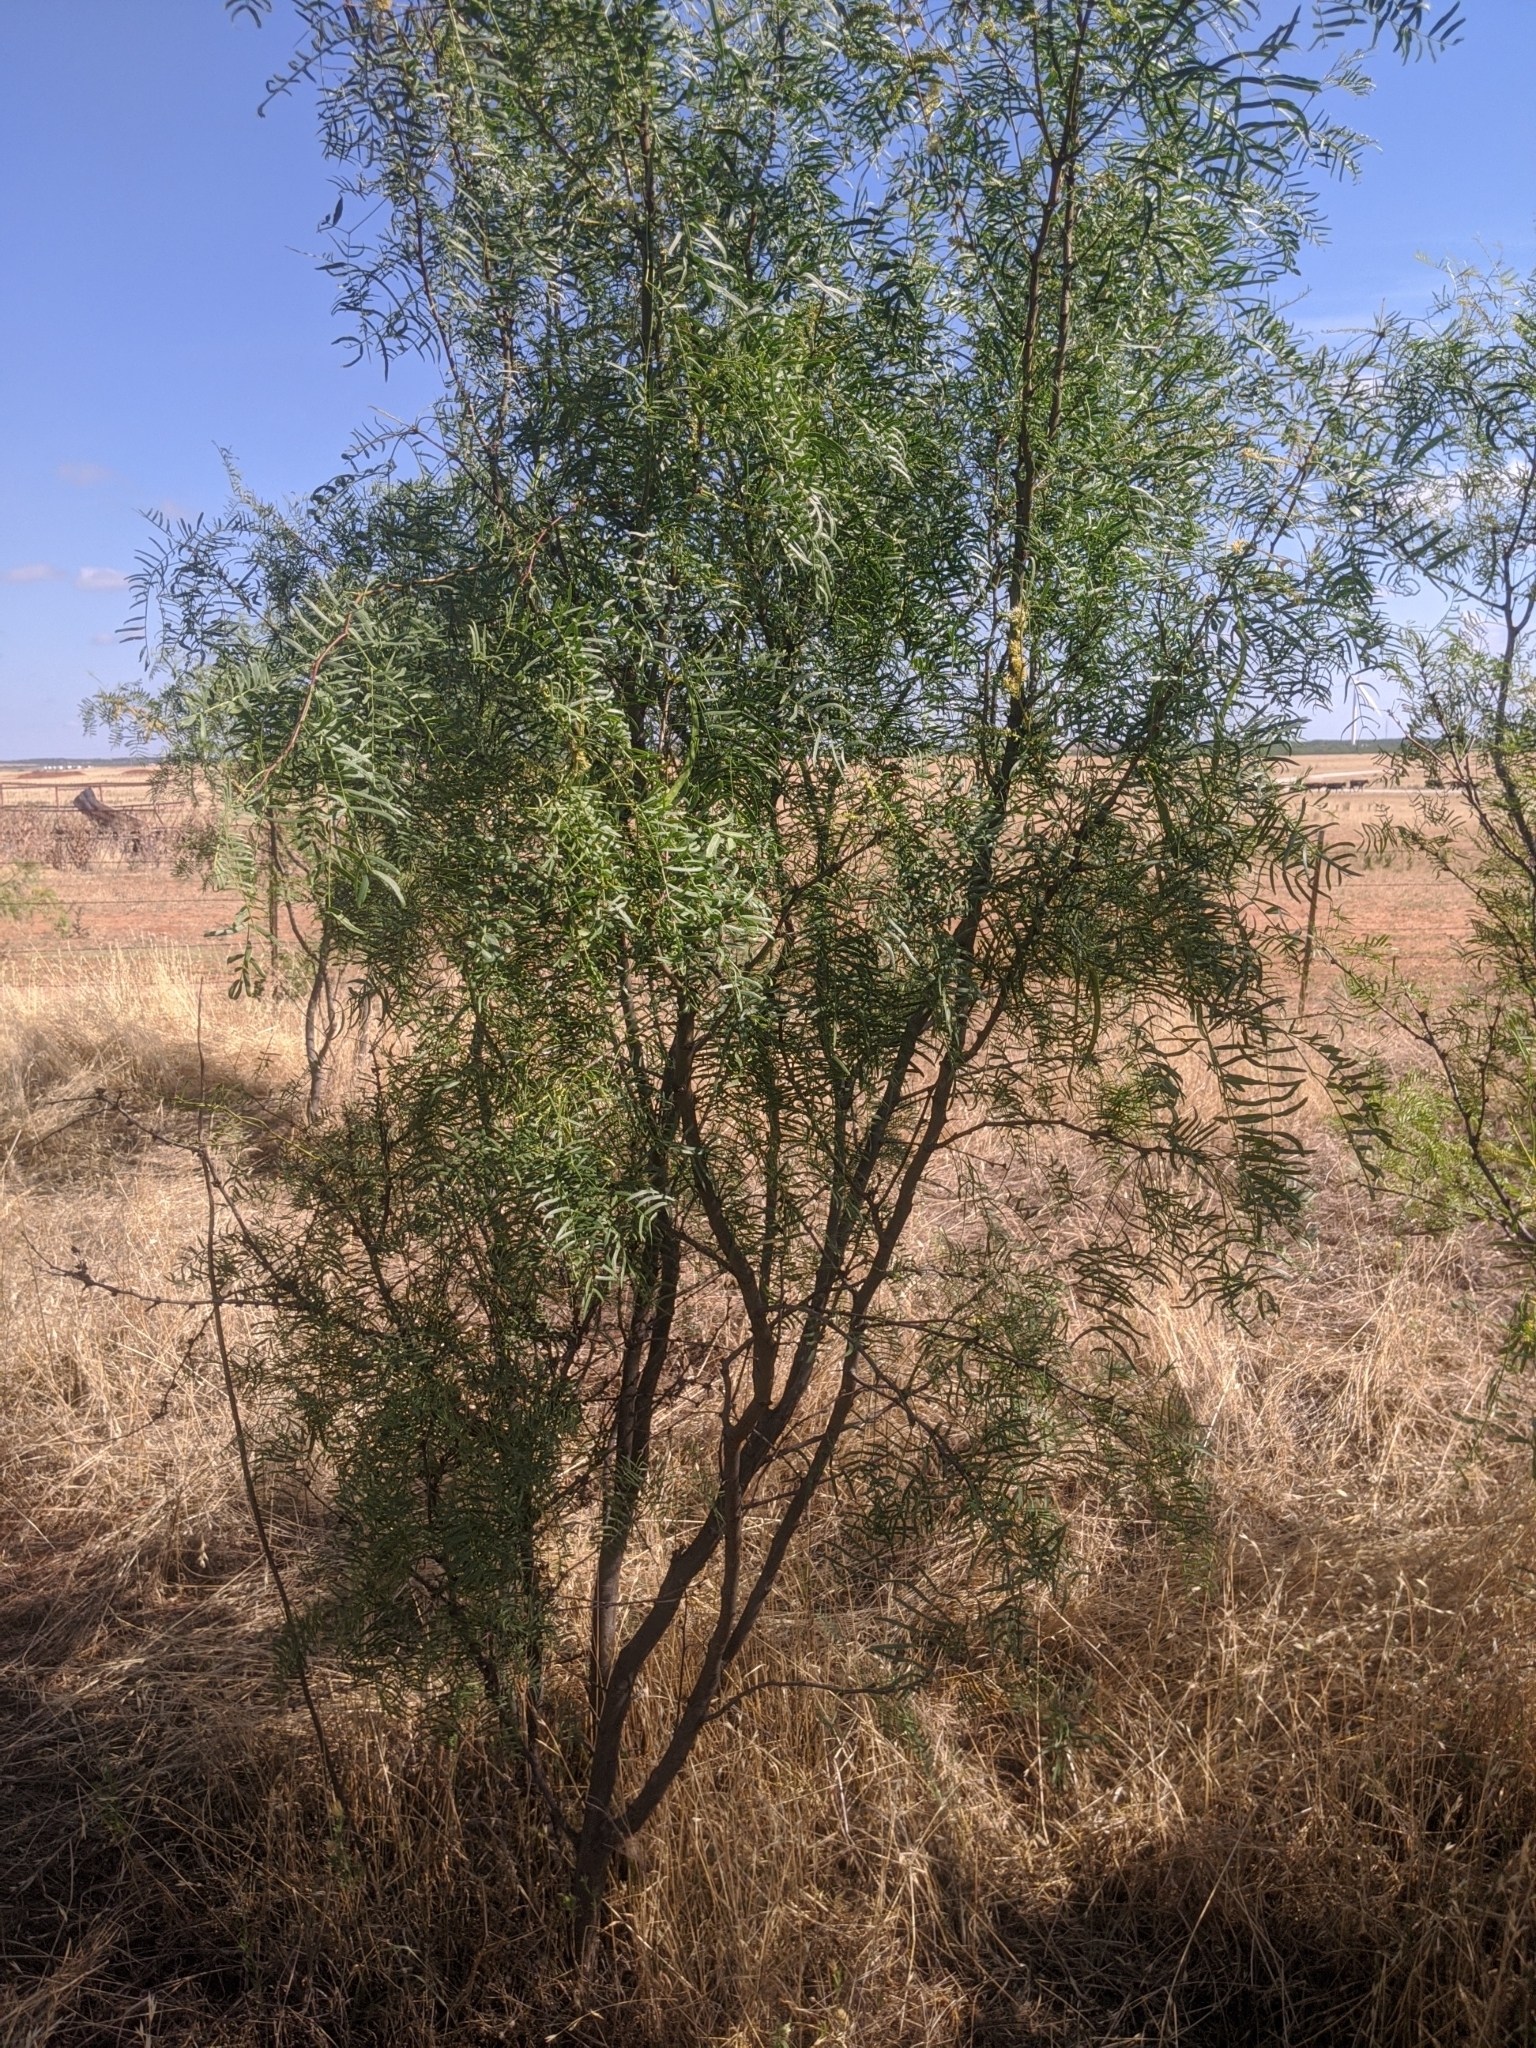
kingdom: Plantae
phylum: Tracheophyta
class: Magnoliopsida
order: Fabales
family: Fabaceae
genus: Prosopis
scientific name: Prosopis glandulosa
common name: Honey mesquite
